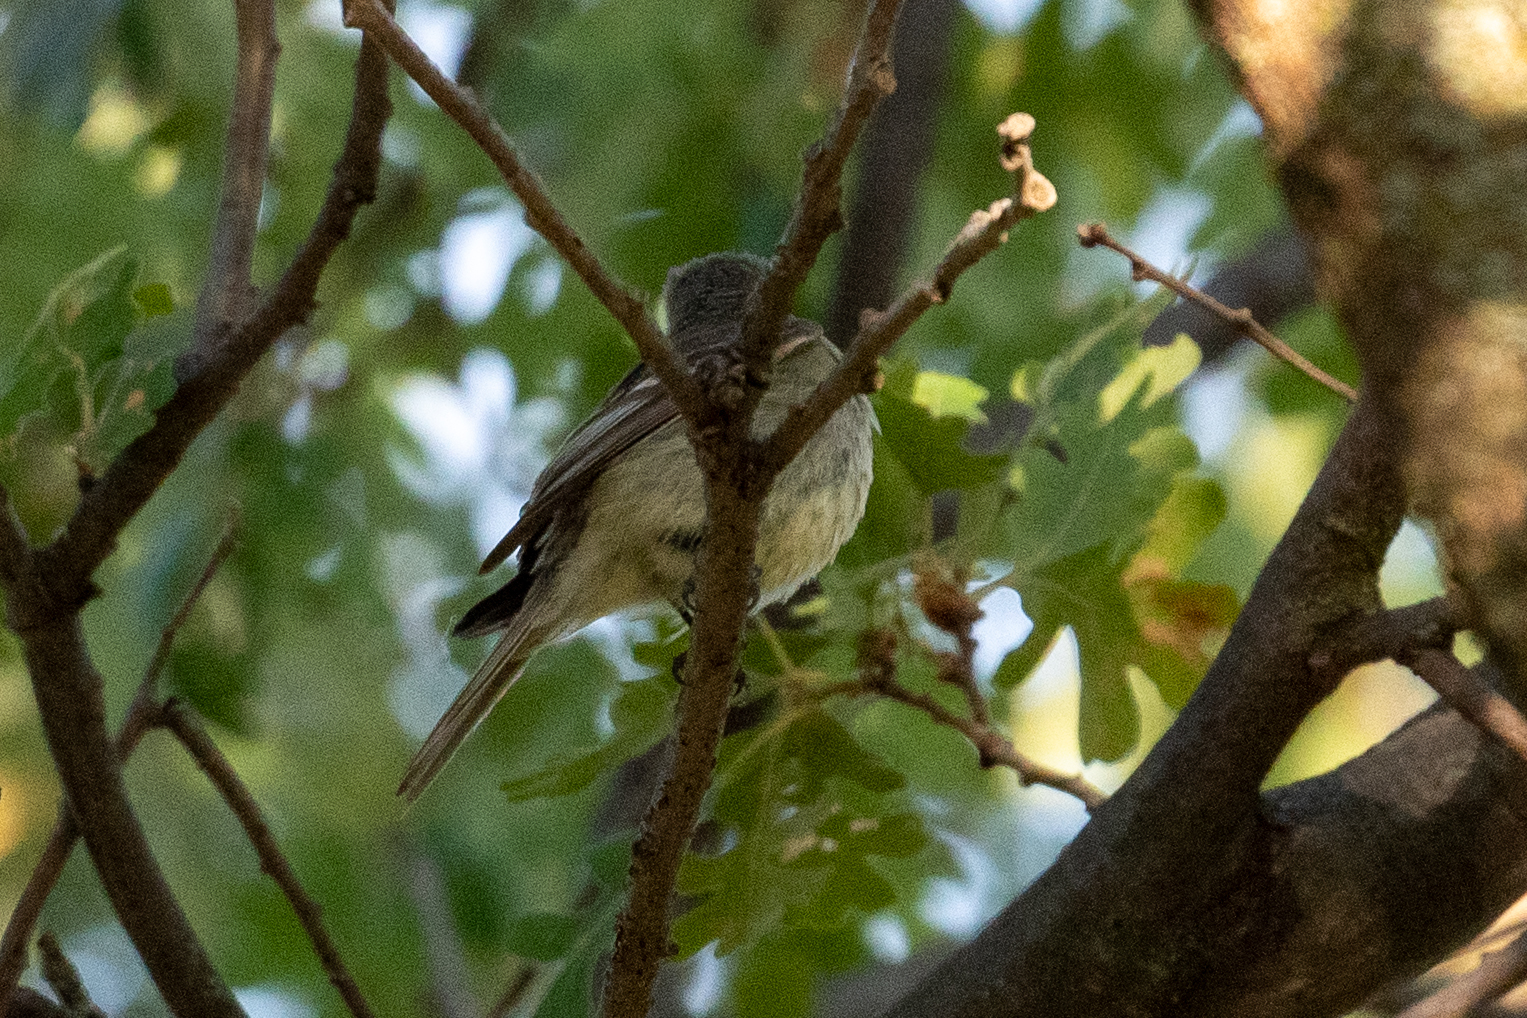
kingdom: Animalia
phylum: Chordata
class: Aves
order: Passeriformes
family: Tyrannidae
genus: Empidonax
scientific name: Empidonax difficilis
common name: Pacific-slope flycatcher
